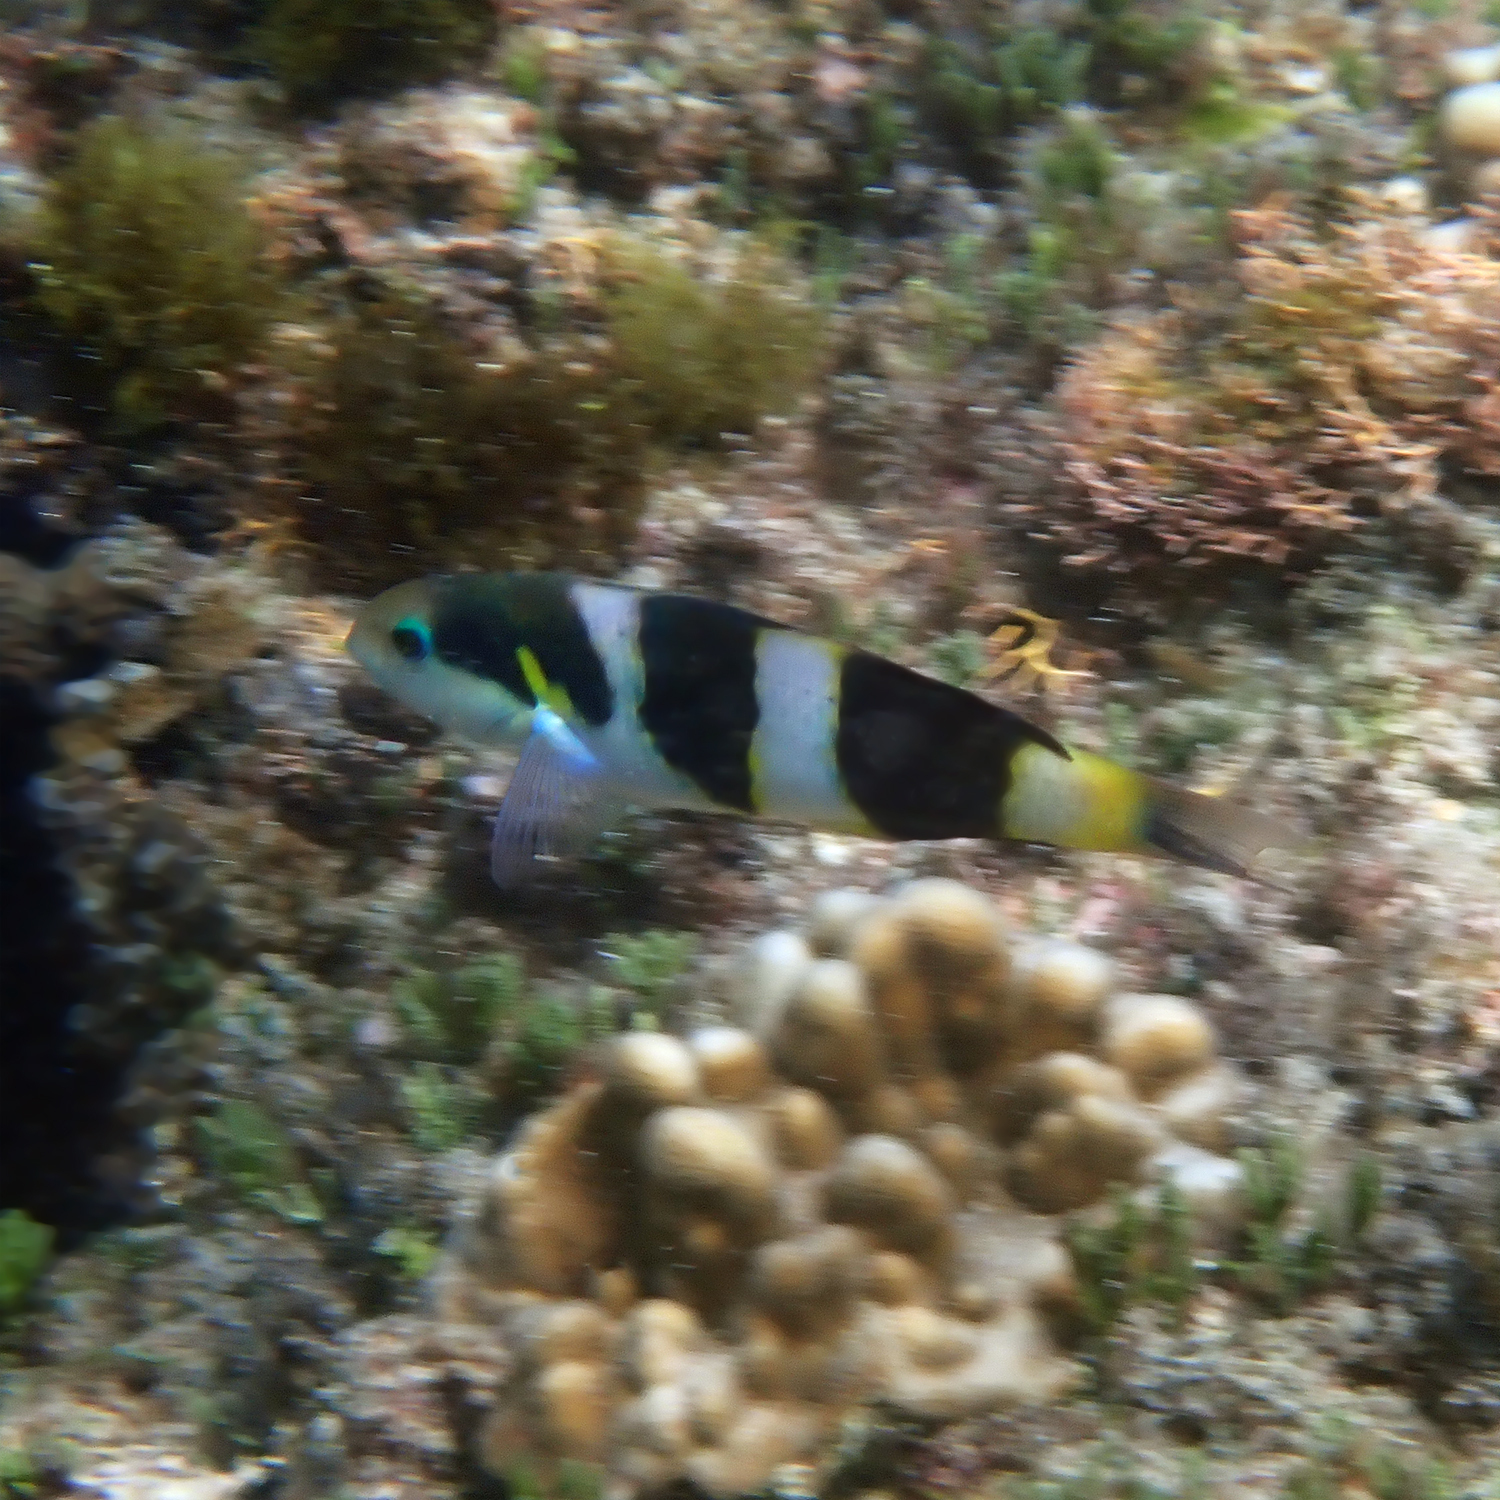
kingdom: Animalia
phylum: Chordata
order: Perciformes
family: Labridae
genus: Thalassoma
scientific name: Thalassoma nigrofasciatum
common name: Black-barred wrasse
